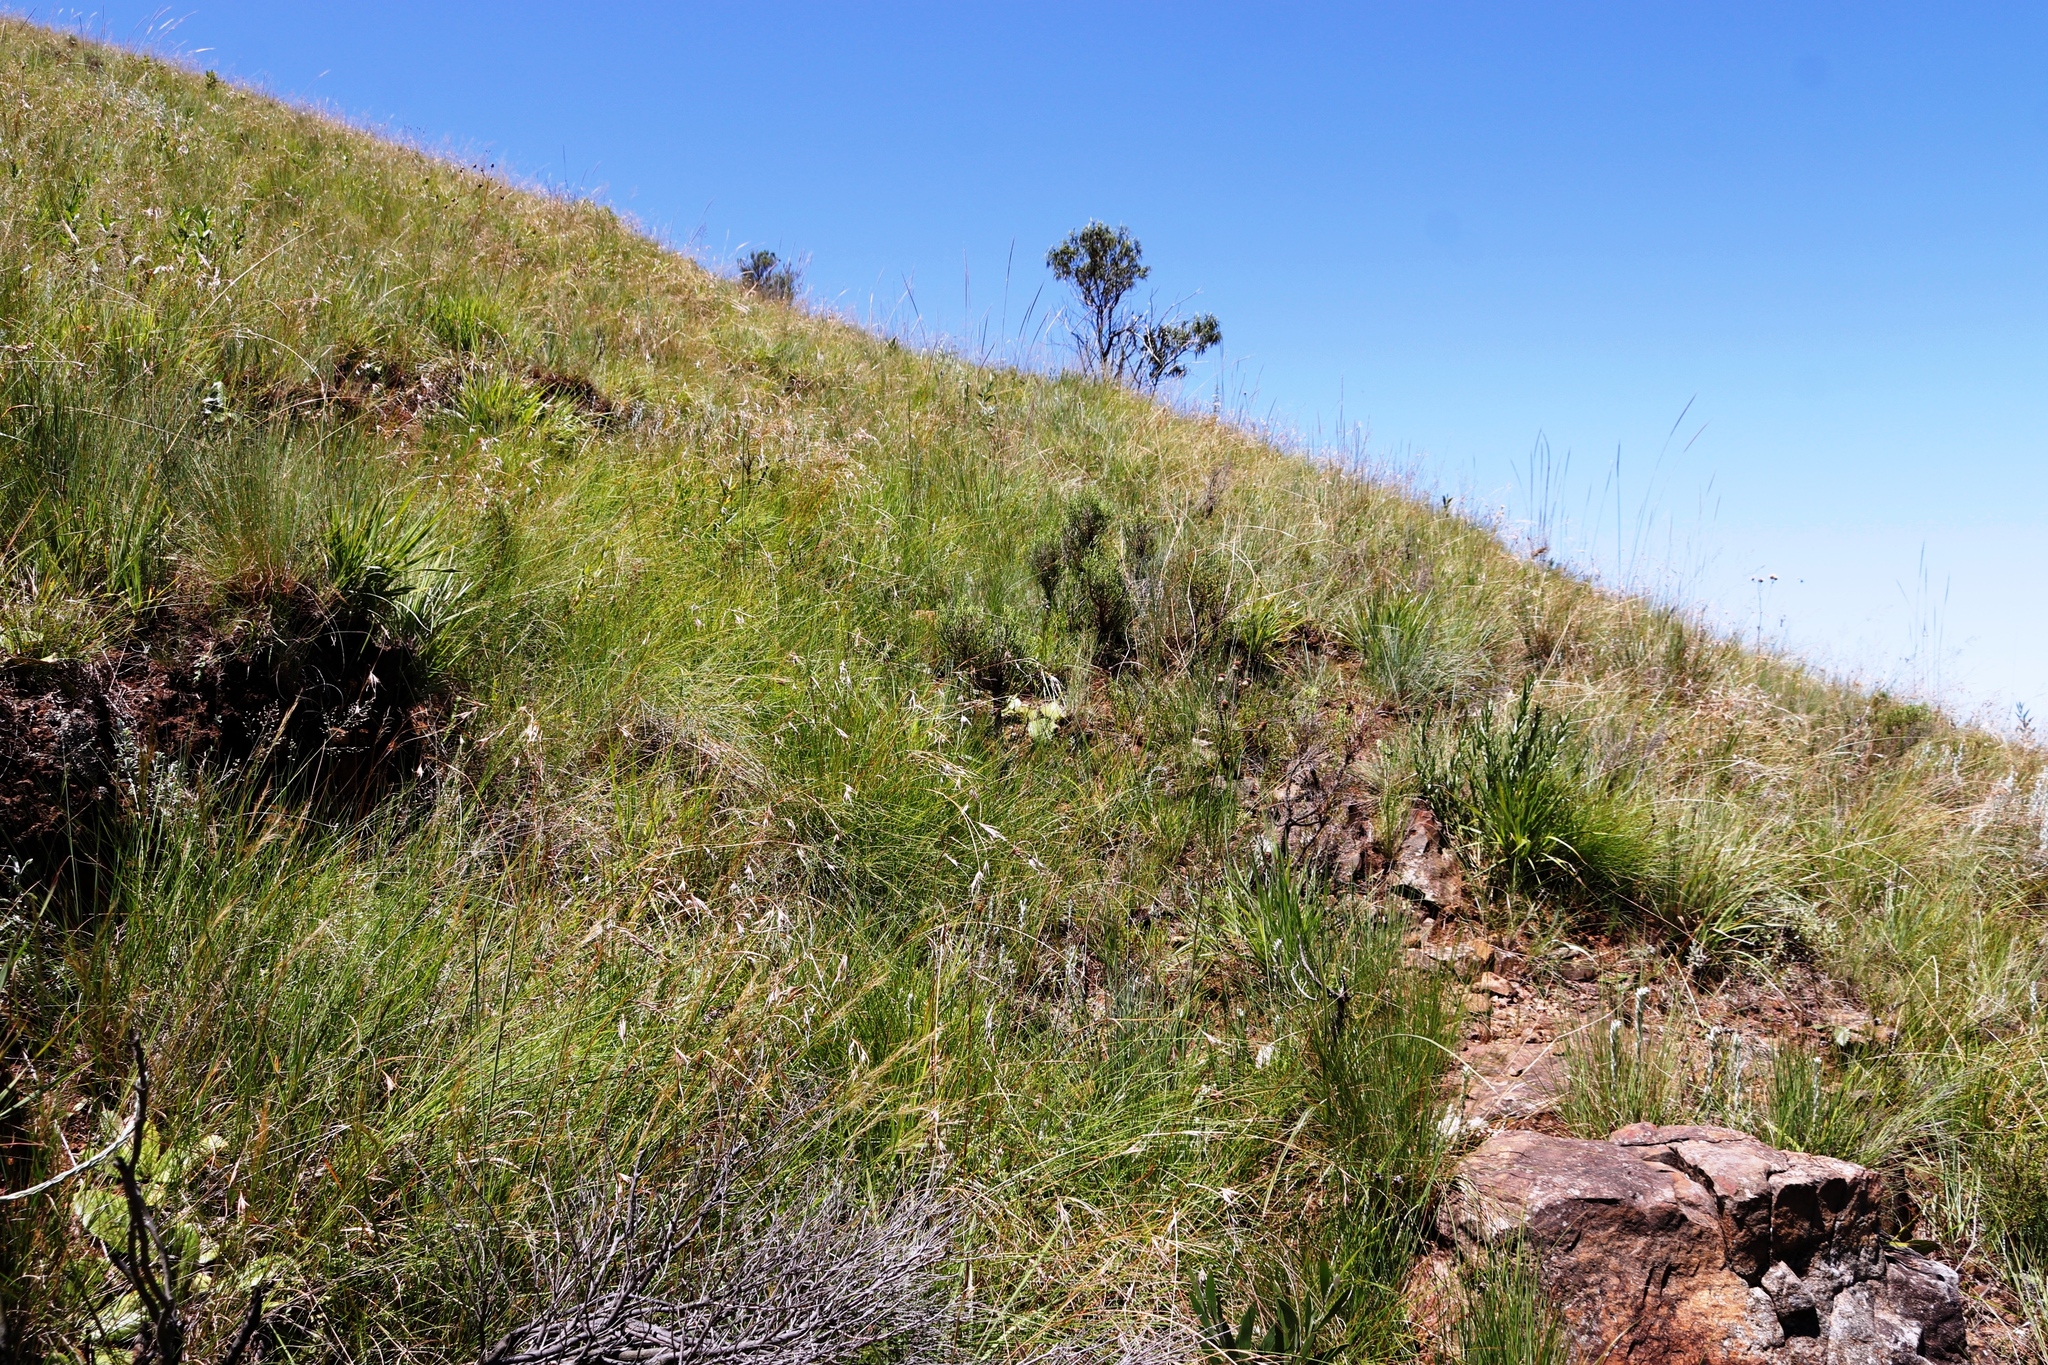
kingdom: Plantae
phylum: Tracheophyta
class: Magnoliopsida
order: Fabales
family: Fabaceae
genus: Acacia
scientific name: Acacia melanoxylon
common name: Blackwood
